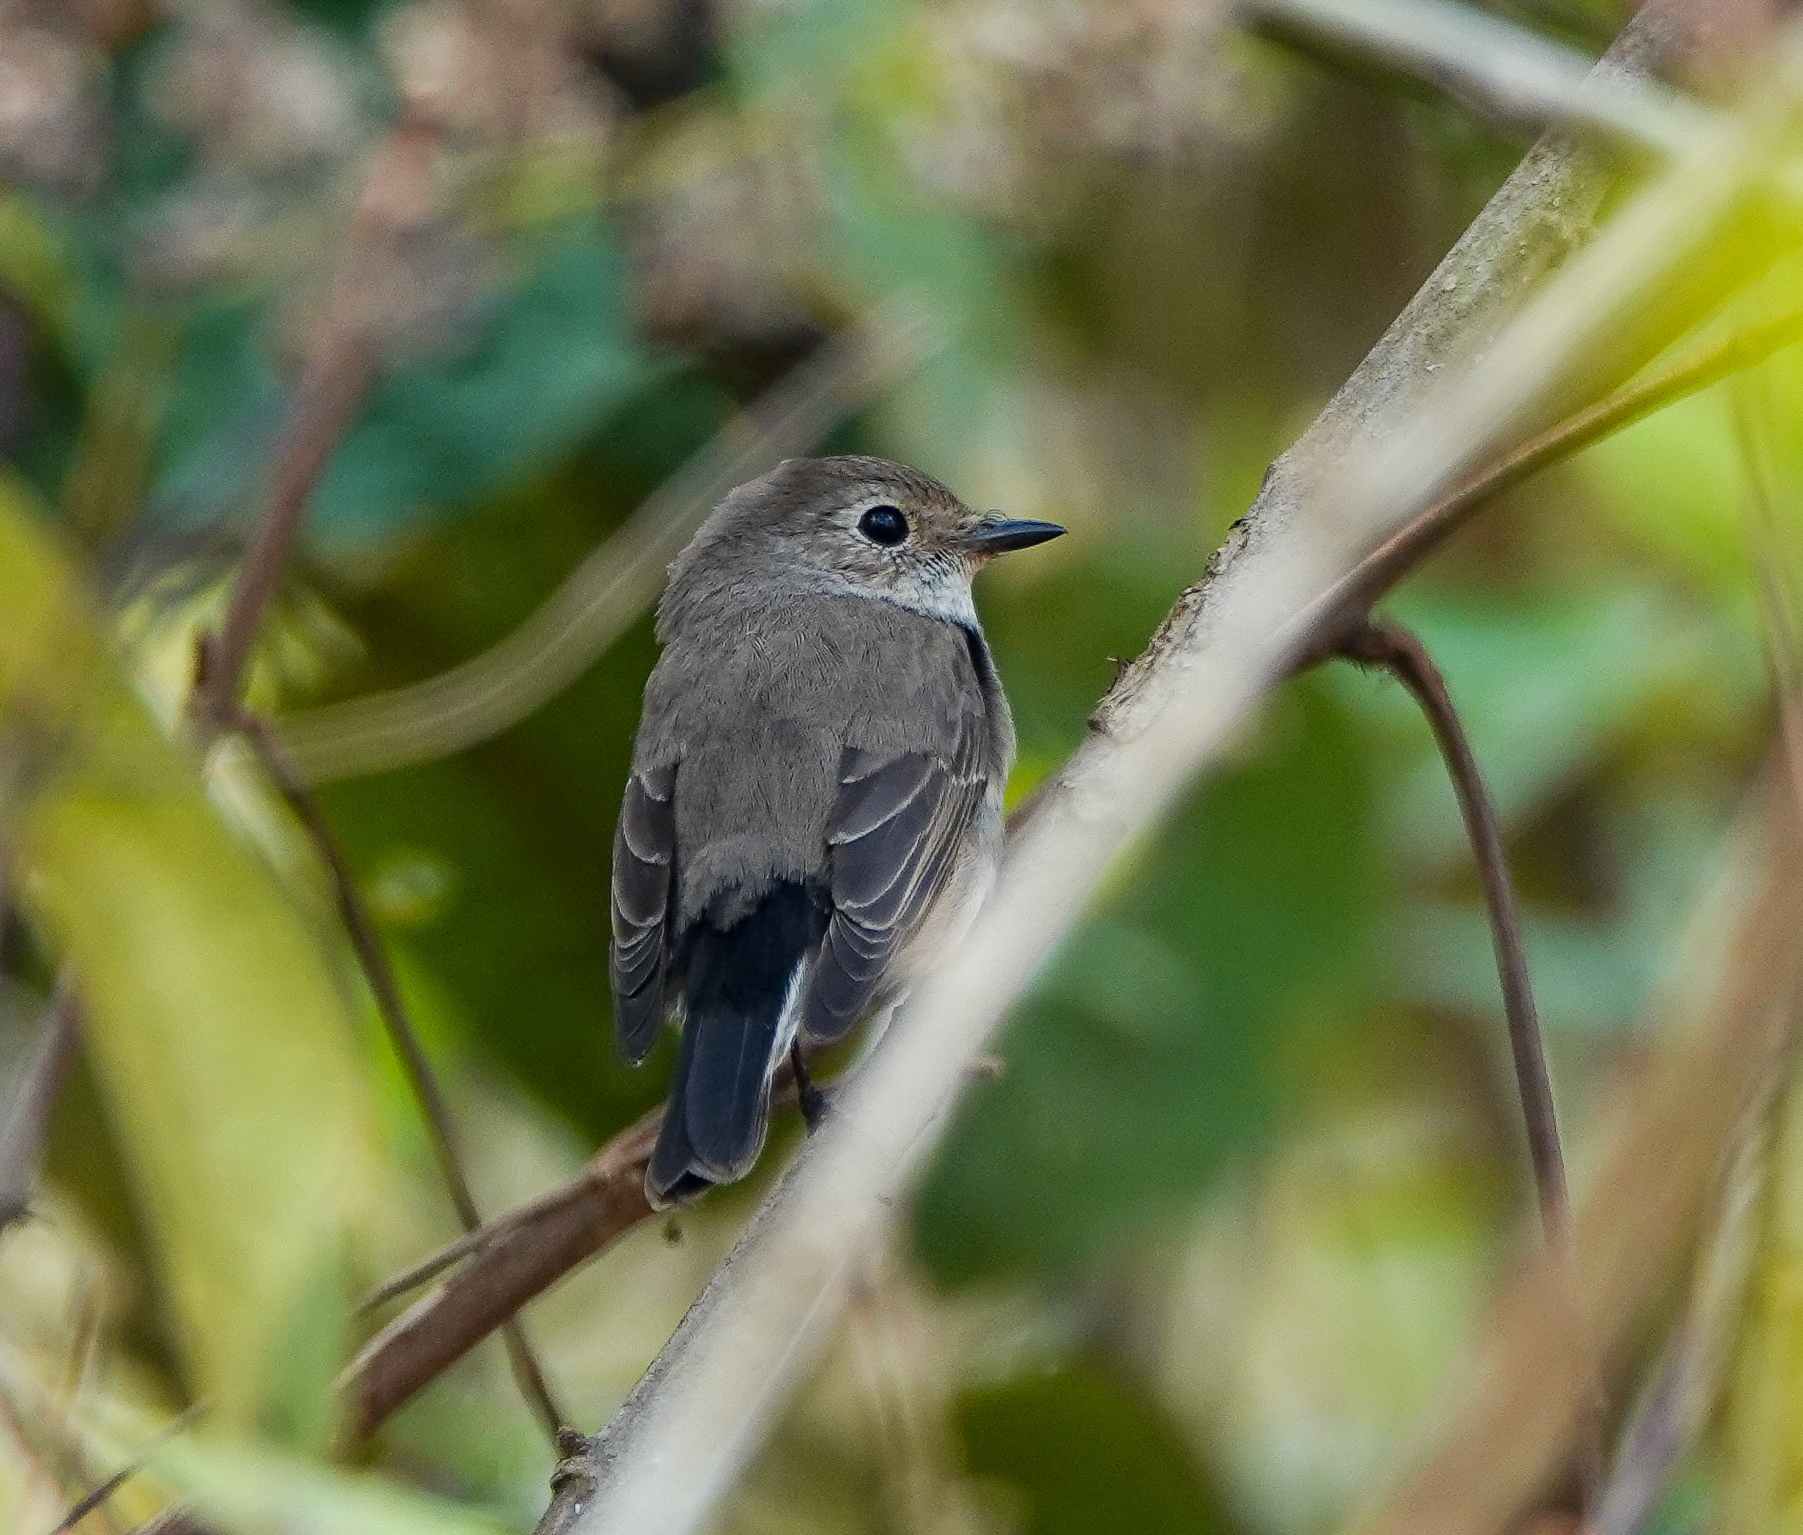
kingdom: Animalia
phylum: Chordata
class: Aves
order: Passeriformes
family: Muscicapidae
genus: Ficedula
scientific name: Ficedula albicilla
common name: Taiga flycatcher
